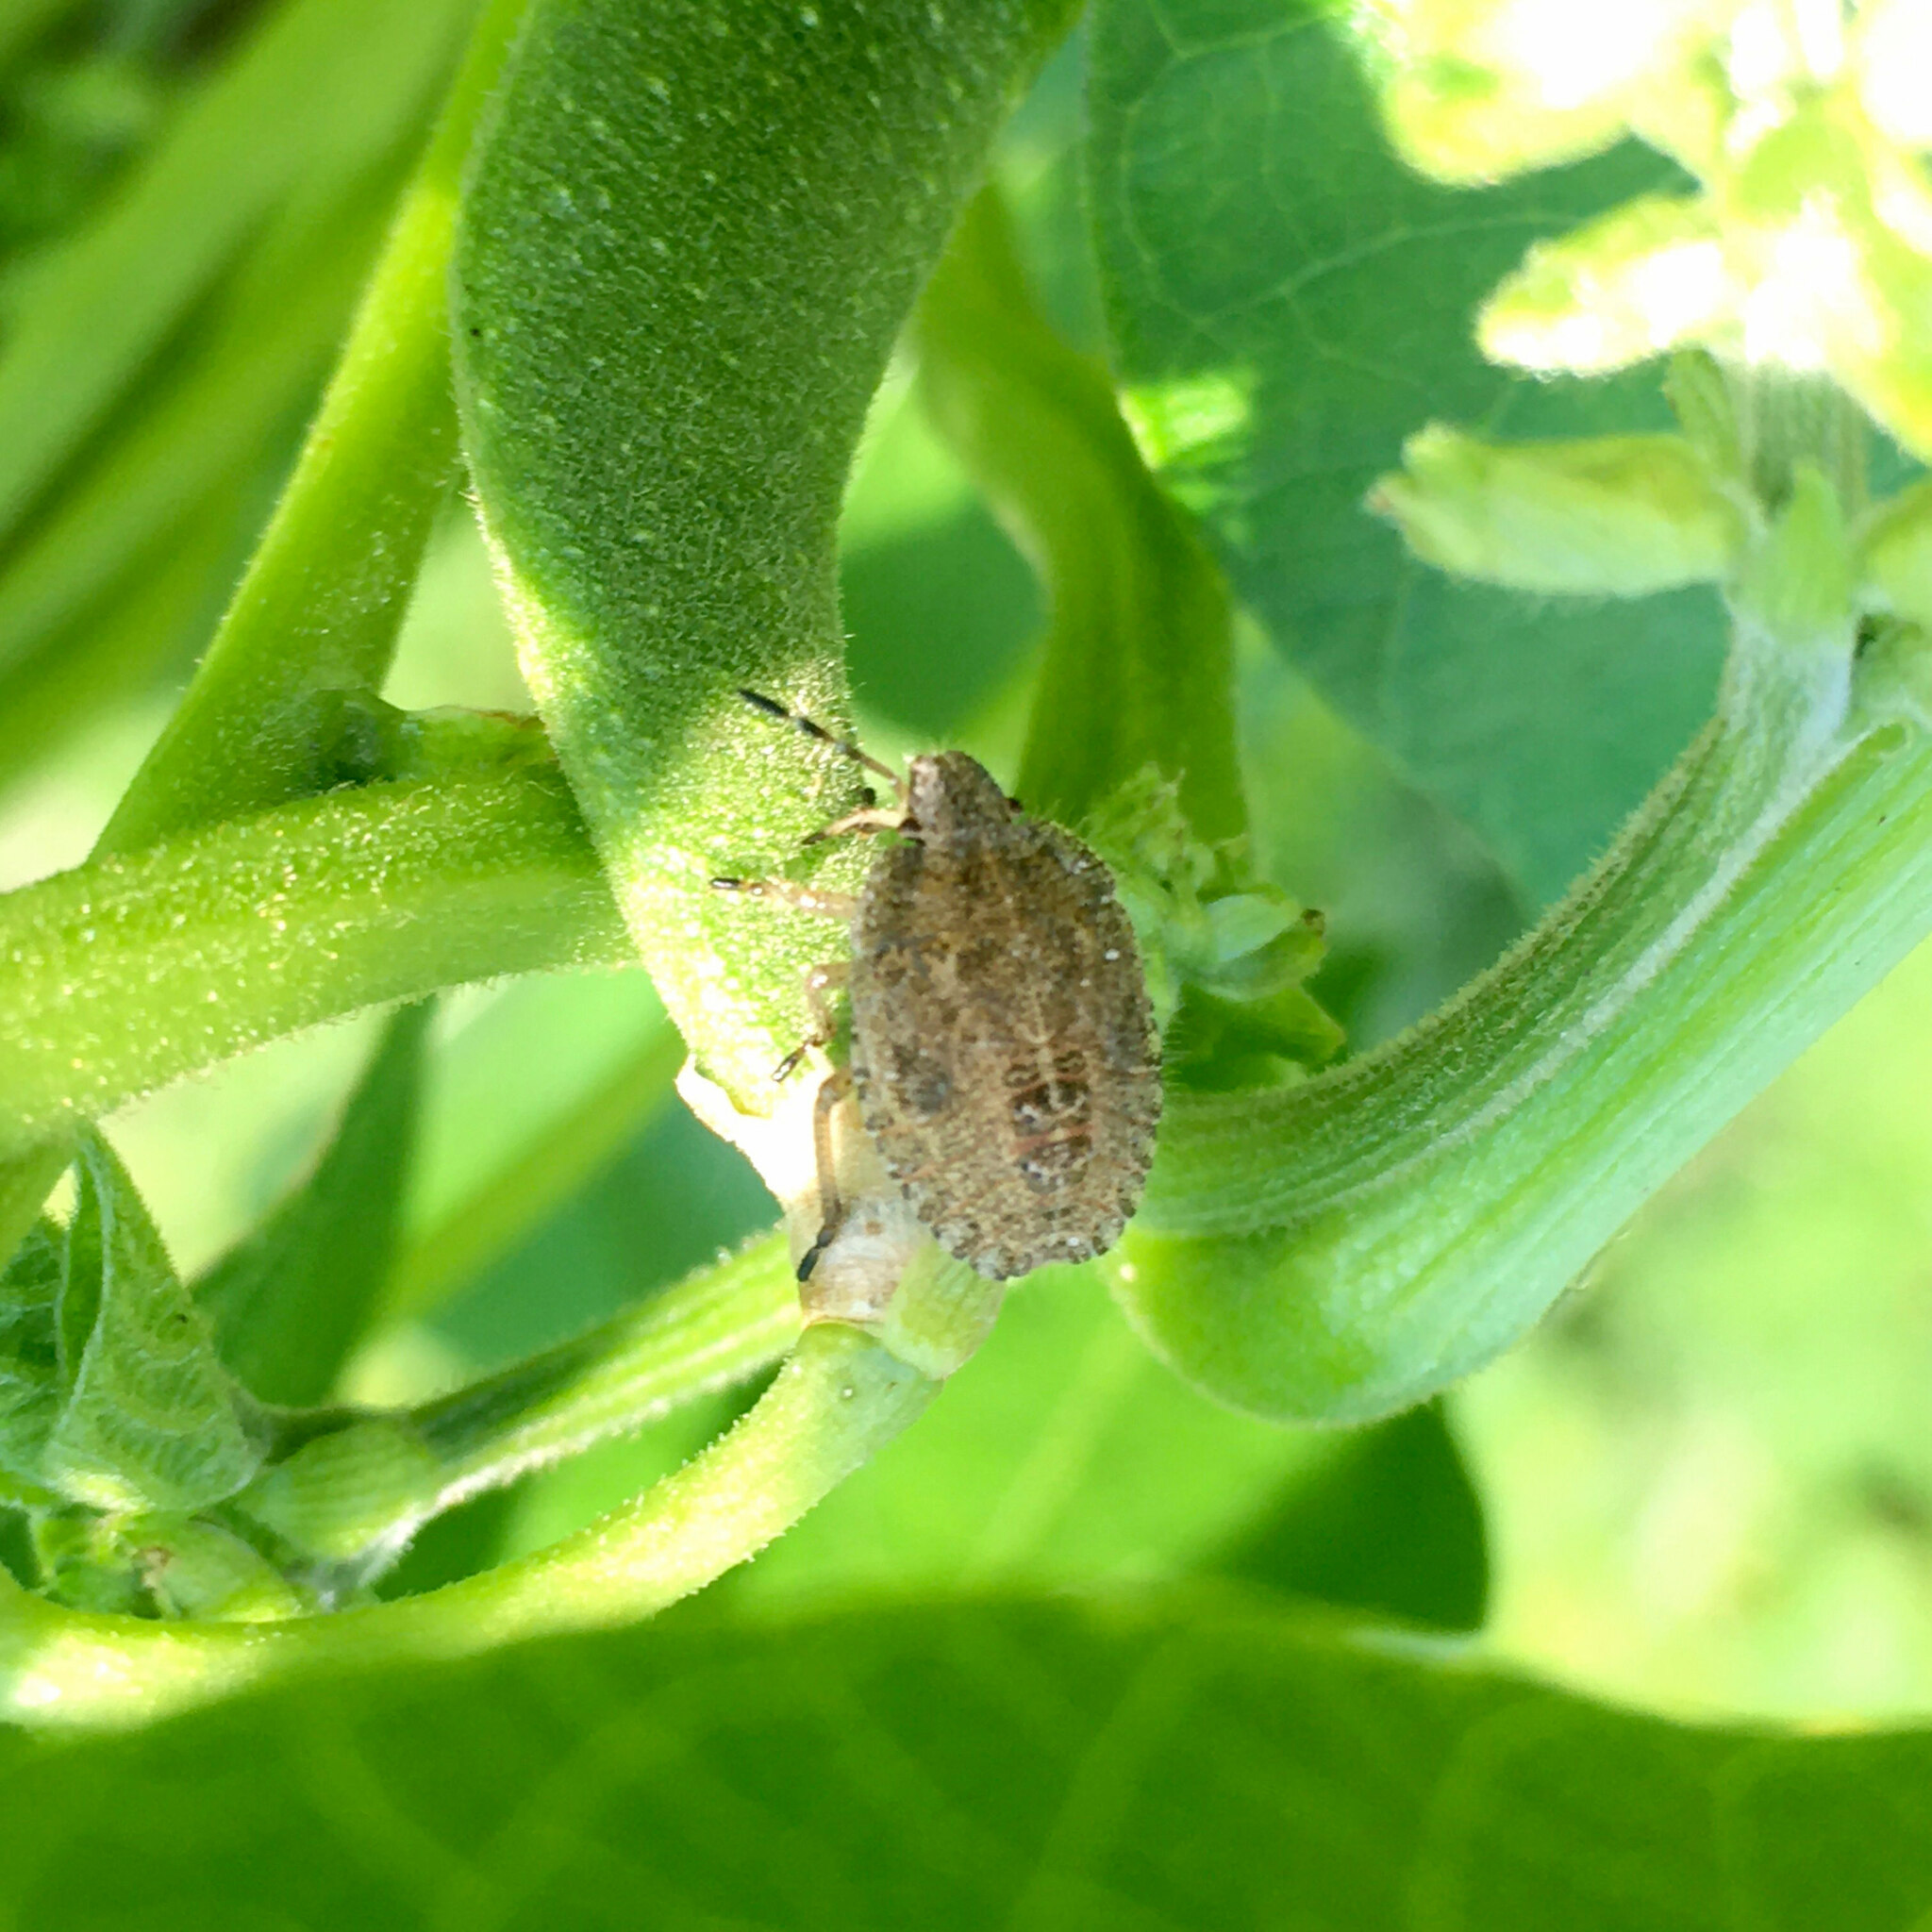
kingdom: Animalia
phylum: Arthropoda
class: Insecta
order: Hemiptera
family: Pentatomidae
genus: Dolycoris
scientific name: Dolycoris baccarum
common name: Sloe bug
